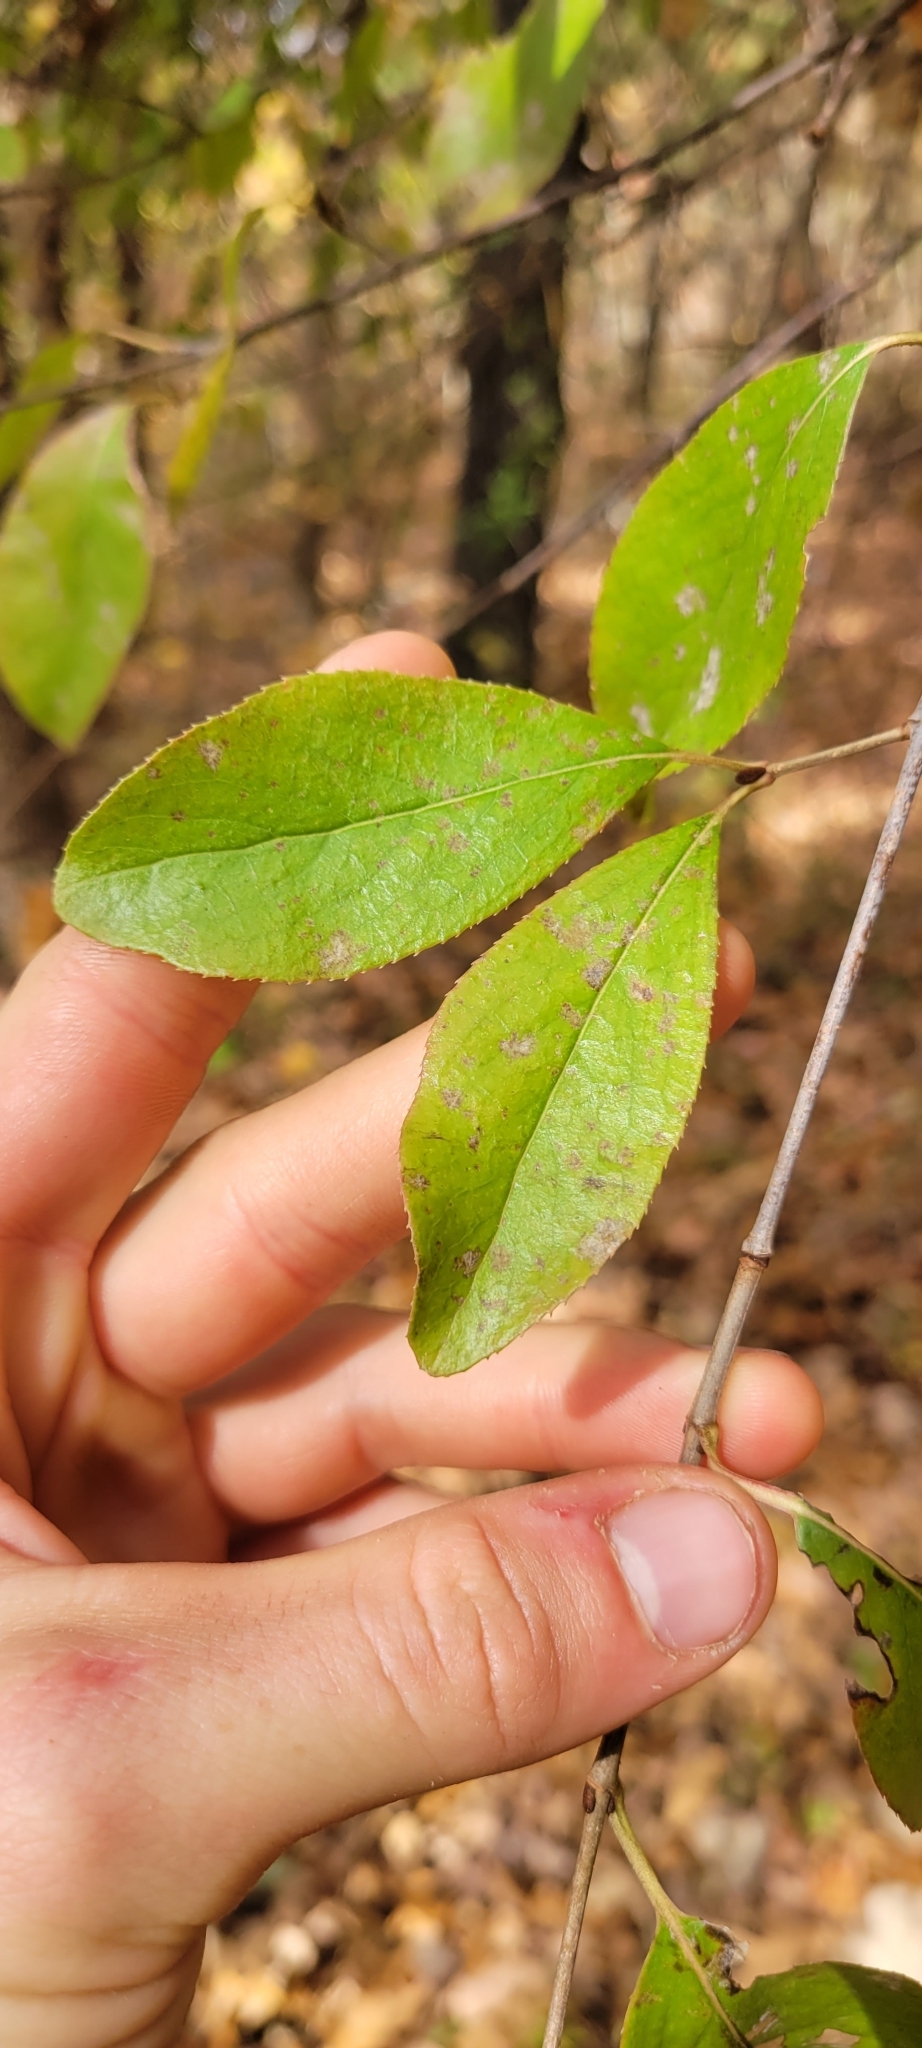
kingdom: Plantae
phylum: Tracheophyta
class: Magnoliopsida
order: Dipsacales
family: Viburnaceae
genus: Viburnum
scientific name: Viburnum rufidulum
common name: Blue haw
